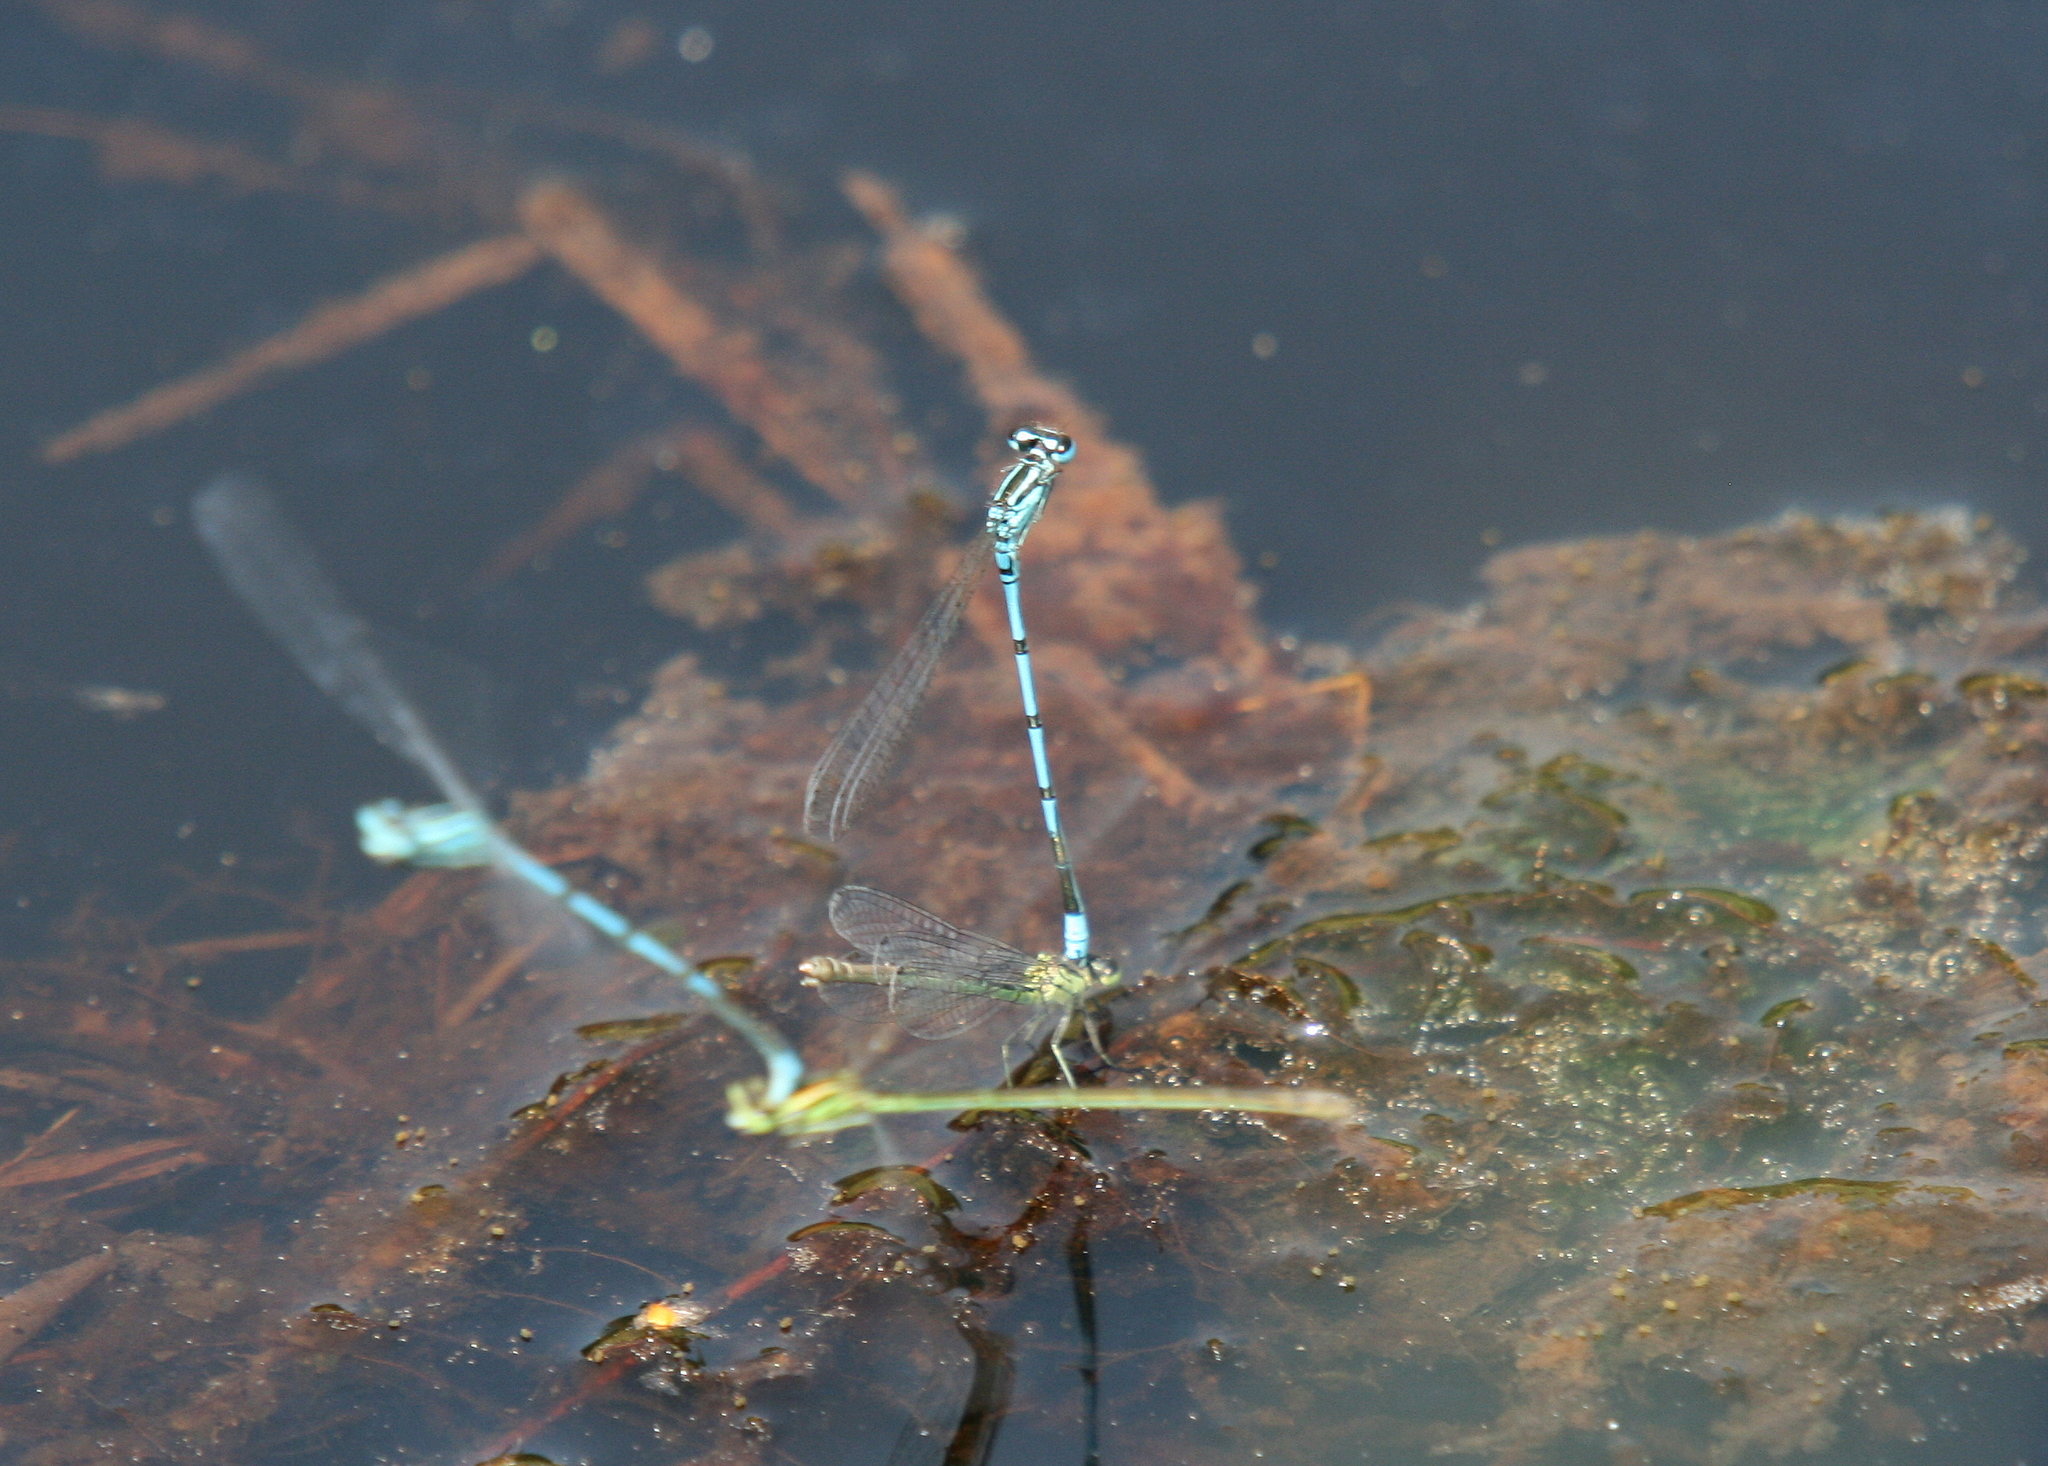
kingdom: Animalia
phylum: Arthropoda
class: Insecta
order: Odonata
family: Coenagrionidae
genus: Coenagrion
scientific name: Coenagrion puella
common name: Azure damselfly
